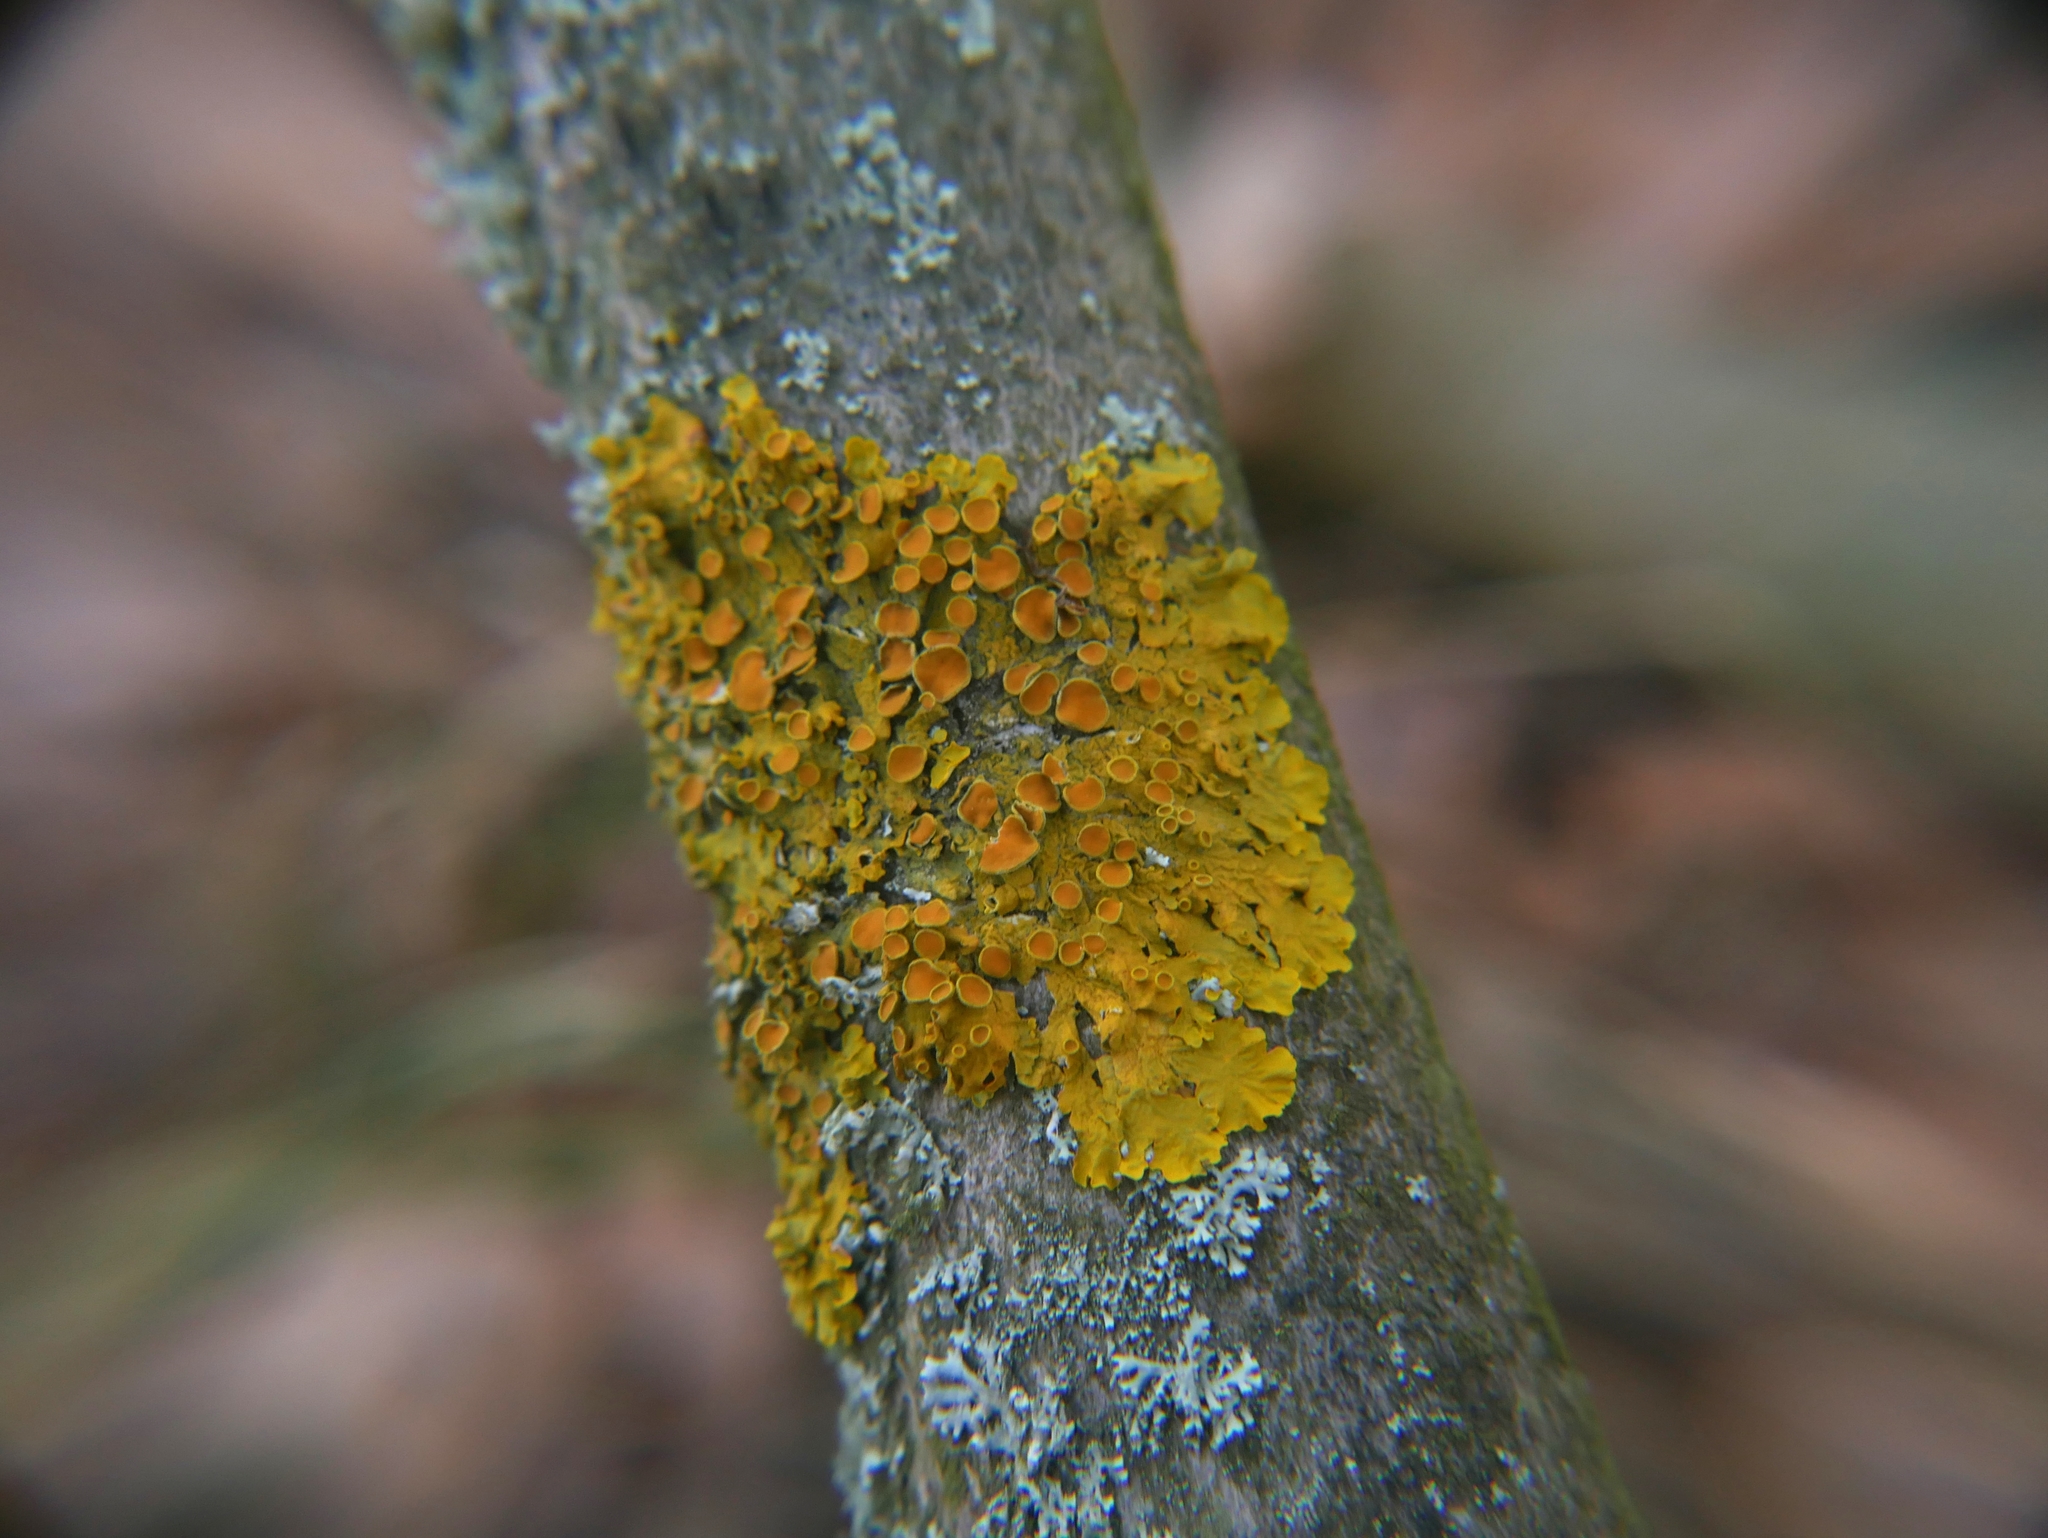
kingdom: Fungi
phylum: Ascomycota
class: Lecanoromycetes
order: Teloschistales
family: Teloschistaceae
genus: Xanthoria
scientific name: Xanthoria parietina
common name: Common orange lichen
